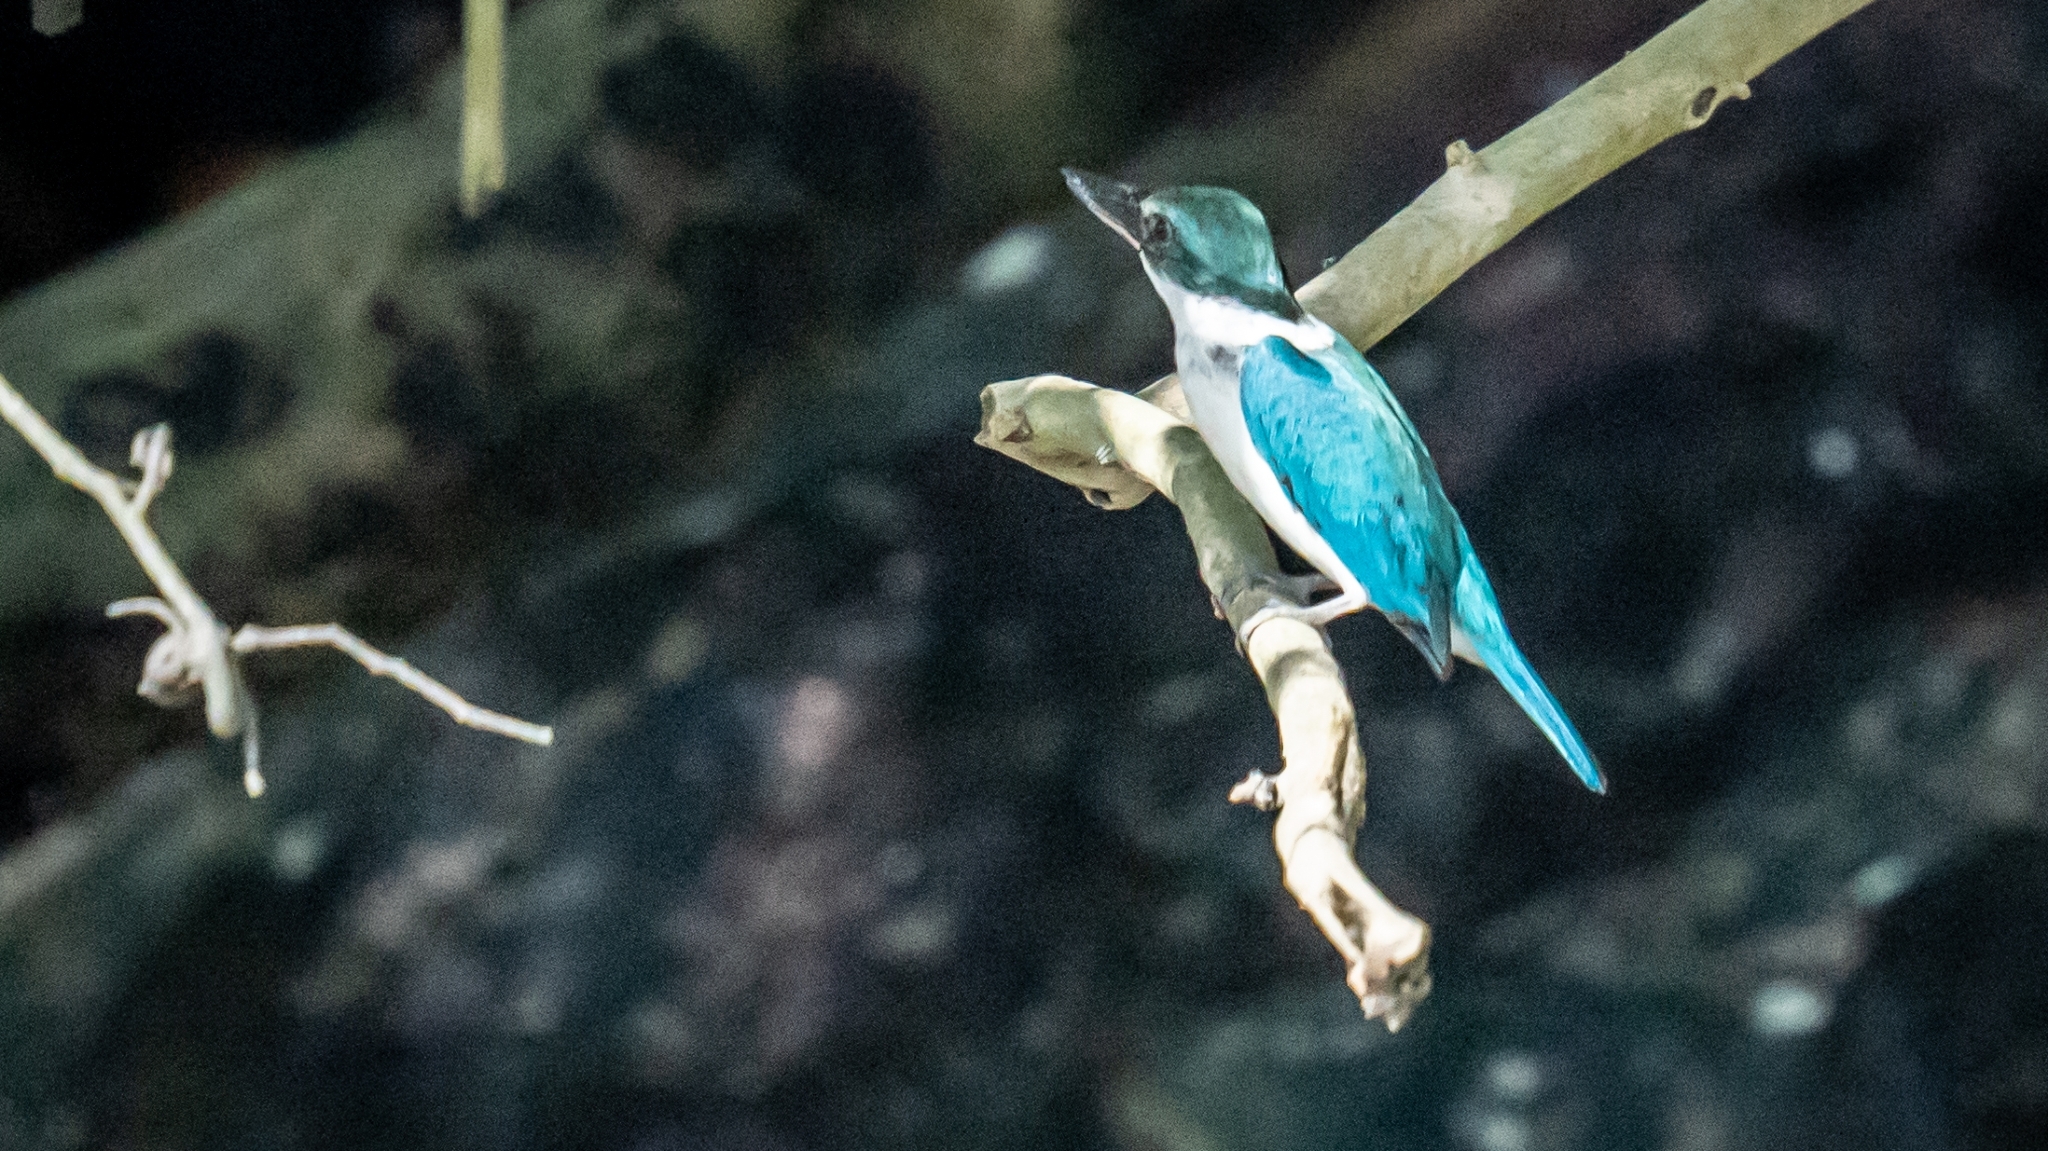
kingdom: Animalia
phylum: Chordata
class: Aves
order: Coraciiformes
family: Alcedinidae
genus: Todiramphus
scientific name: Todiramphus chloris
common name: Collared kingfisher
